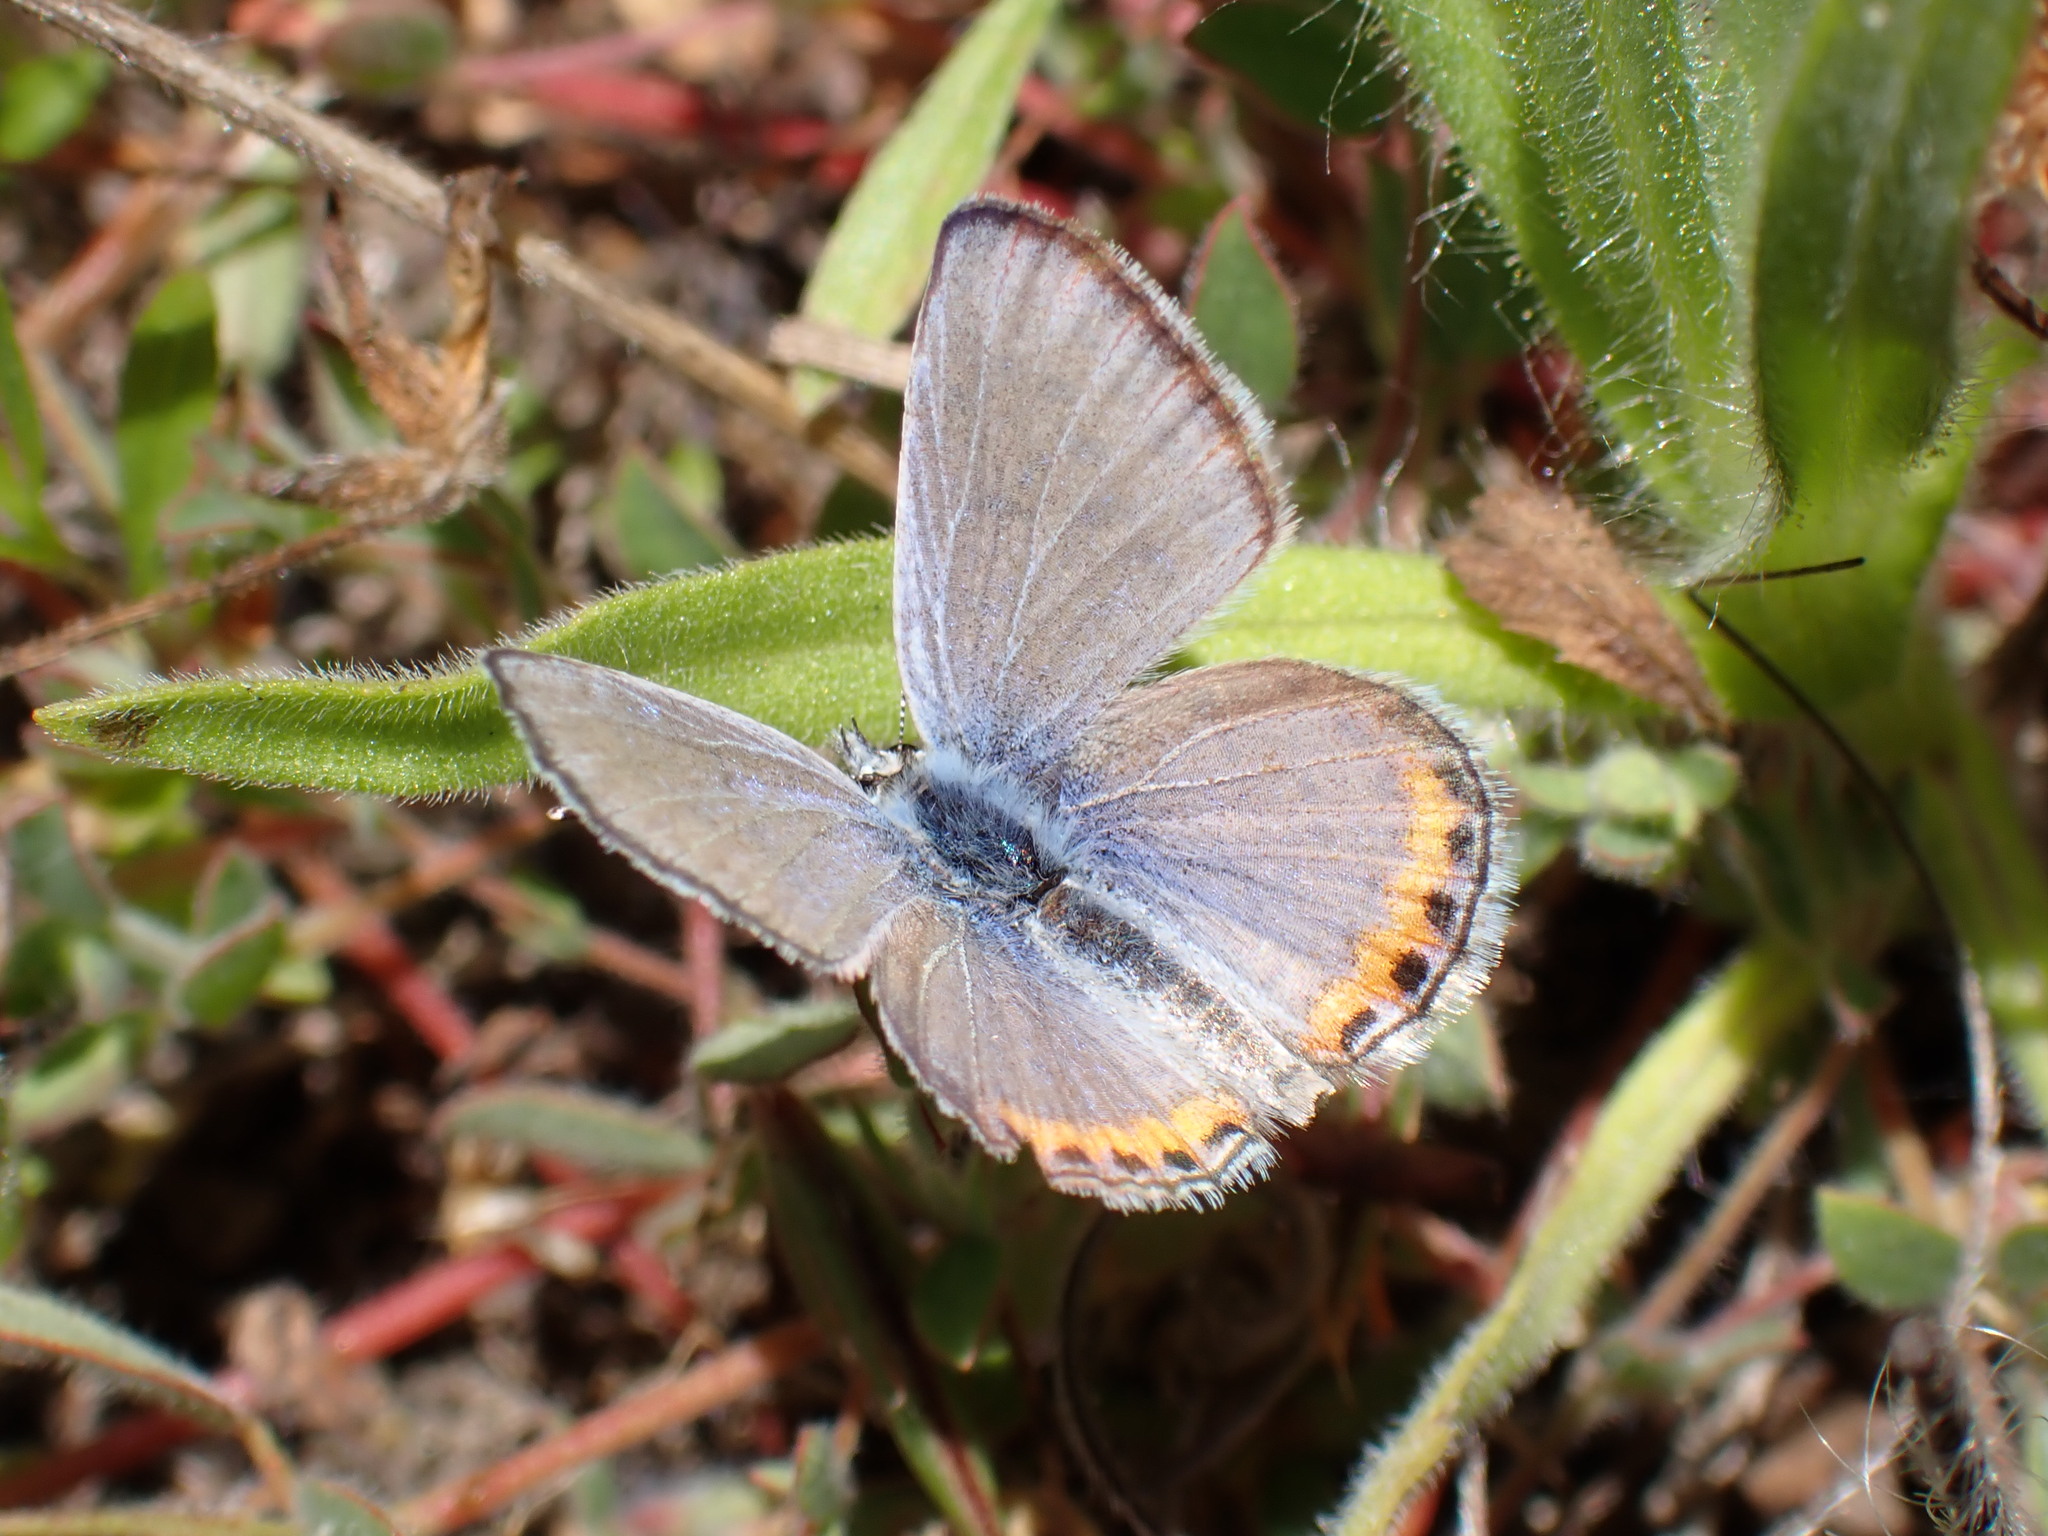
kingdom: Animalia
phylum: Arthropoda
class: Insecta
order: Lepidoptera
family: Lycaenidae
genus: Icaricia
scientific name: Icaricia acmon
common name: Acmon blue
